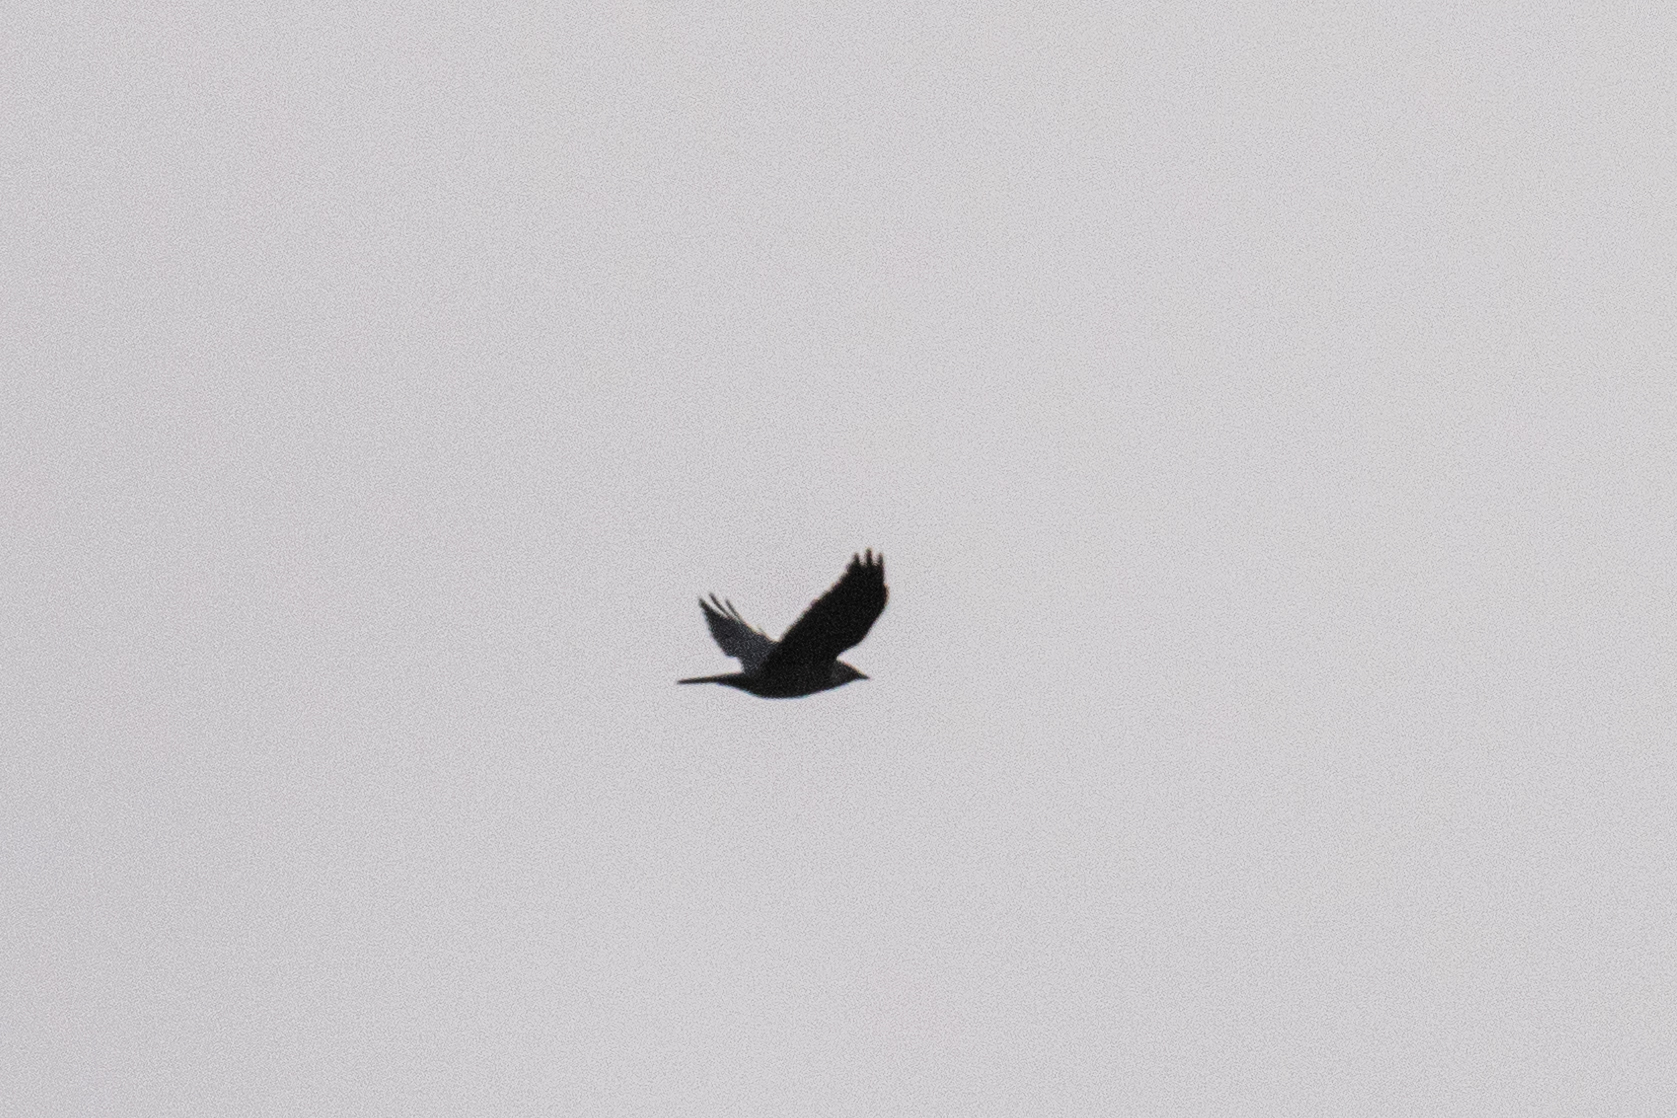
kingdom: Animalia
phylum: Chordata
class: Aves
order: Passeriformes
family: Corvidae
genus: Coloeus
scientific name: Coloeus monedula
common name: Western jackdaw
